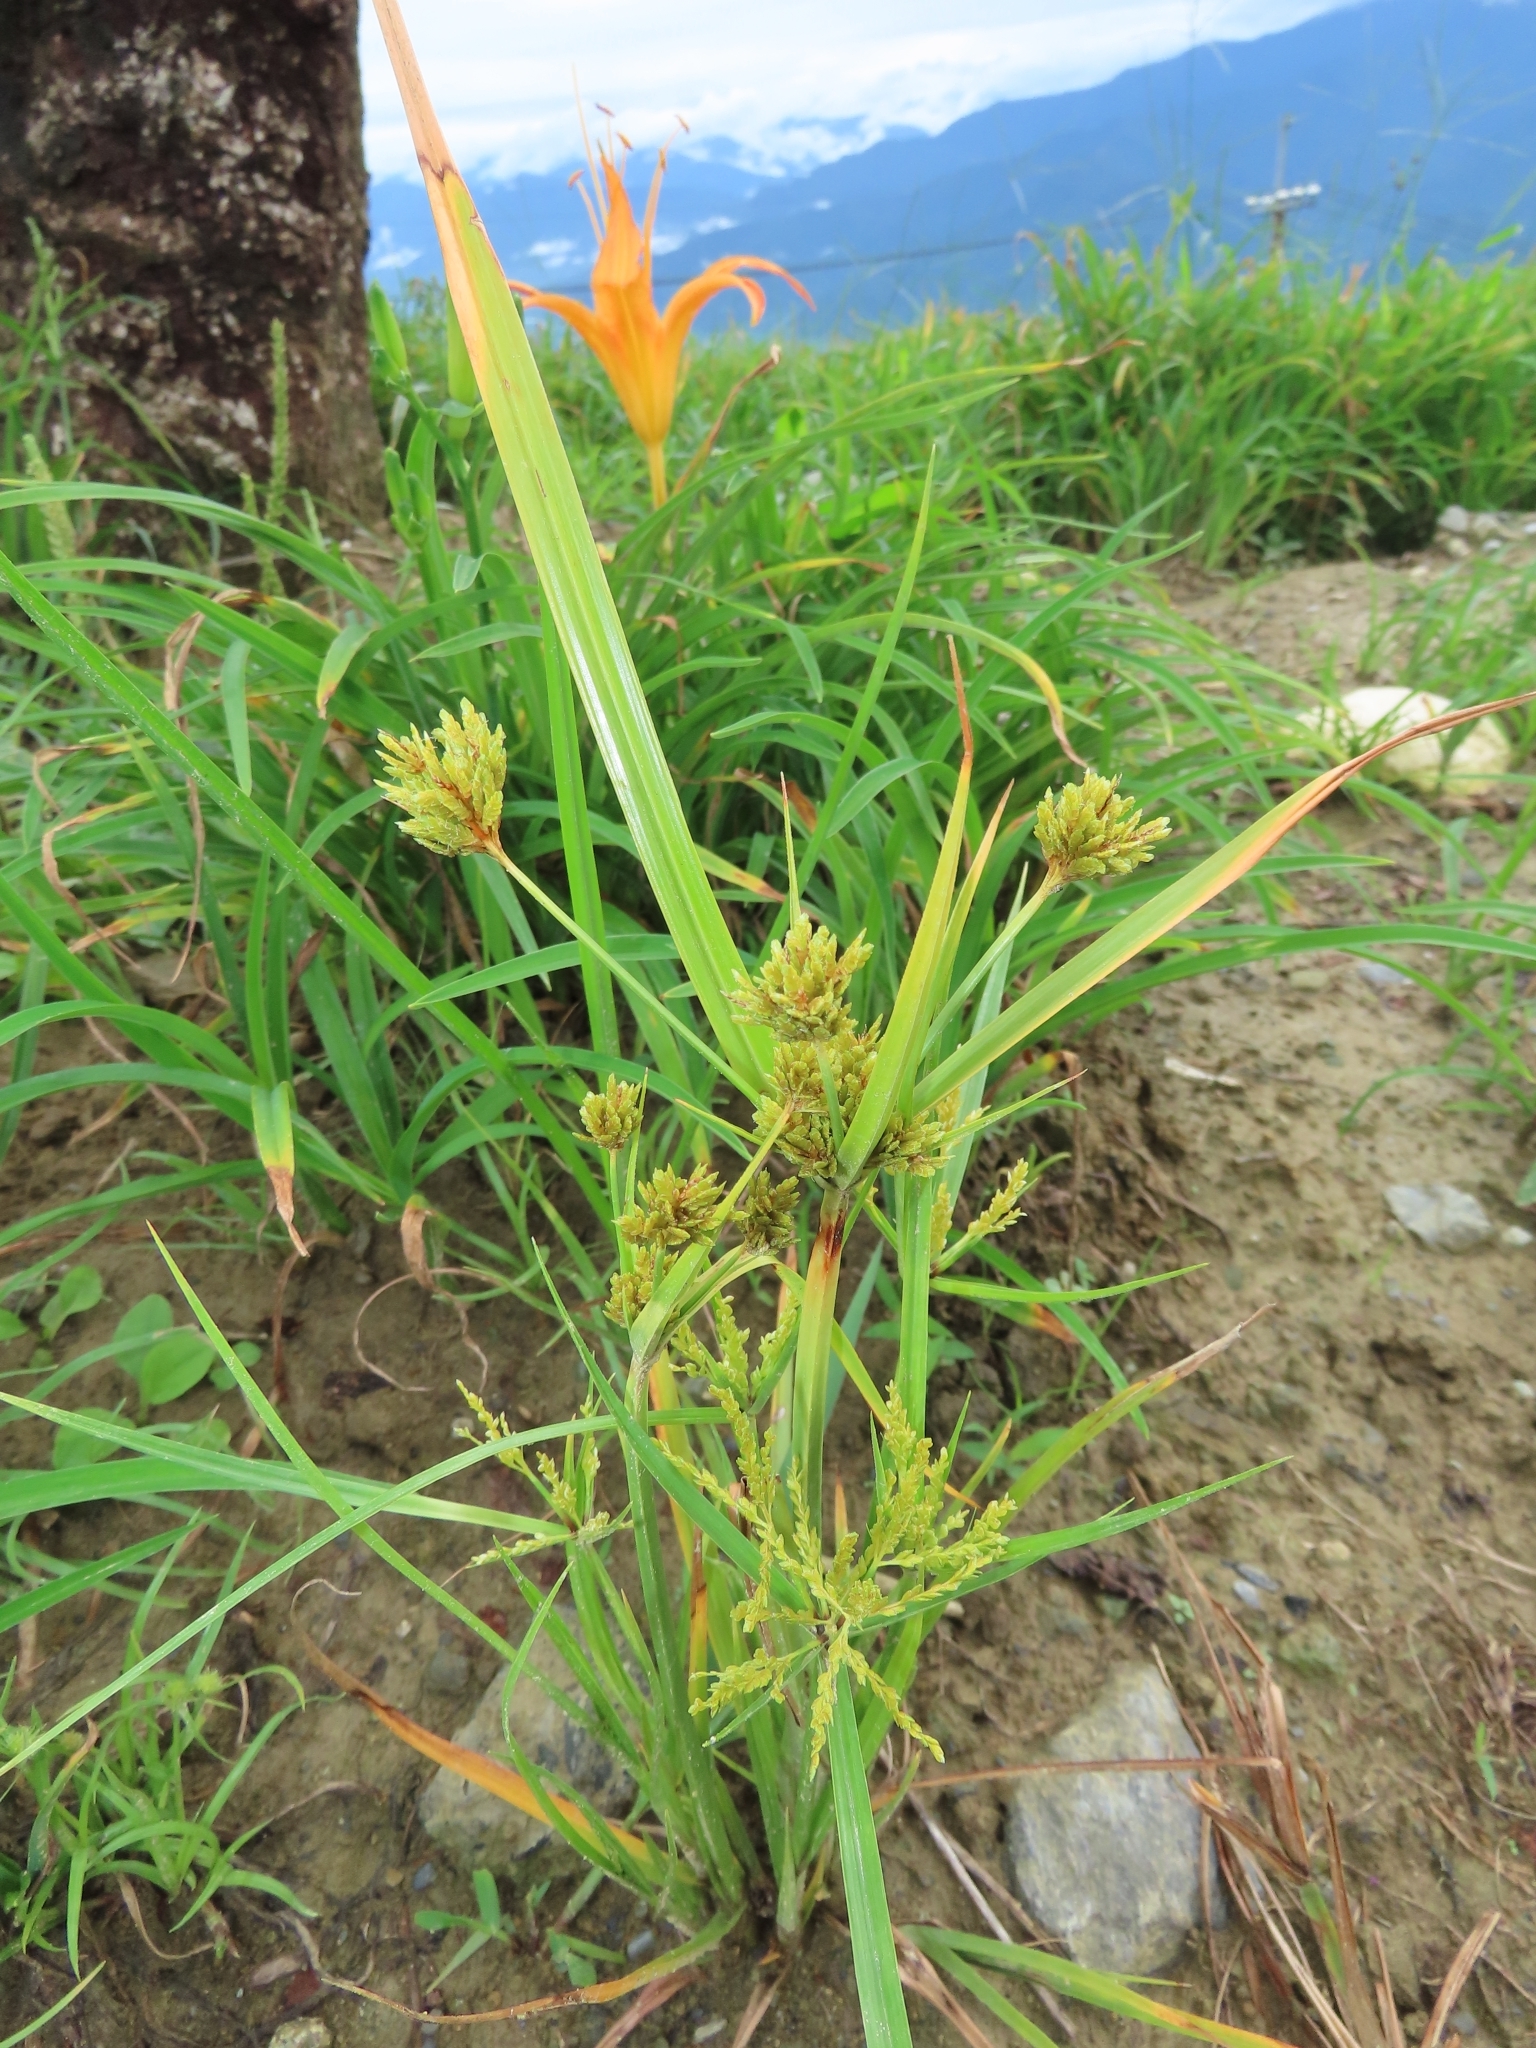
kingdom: Plantae
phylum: Tracheophyta
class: Liliopsida
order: Poales
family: Cyperaceae
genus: Cyperus
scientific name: Cyperus difformis
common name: Variable flatsedge
